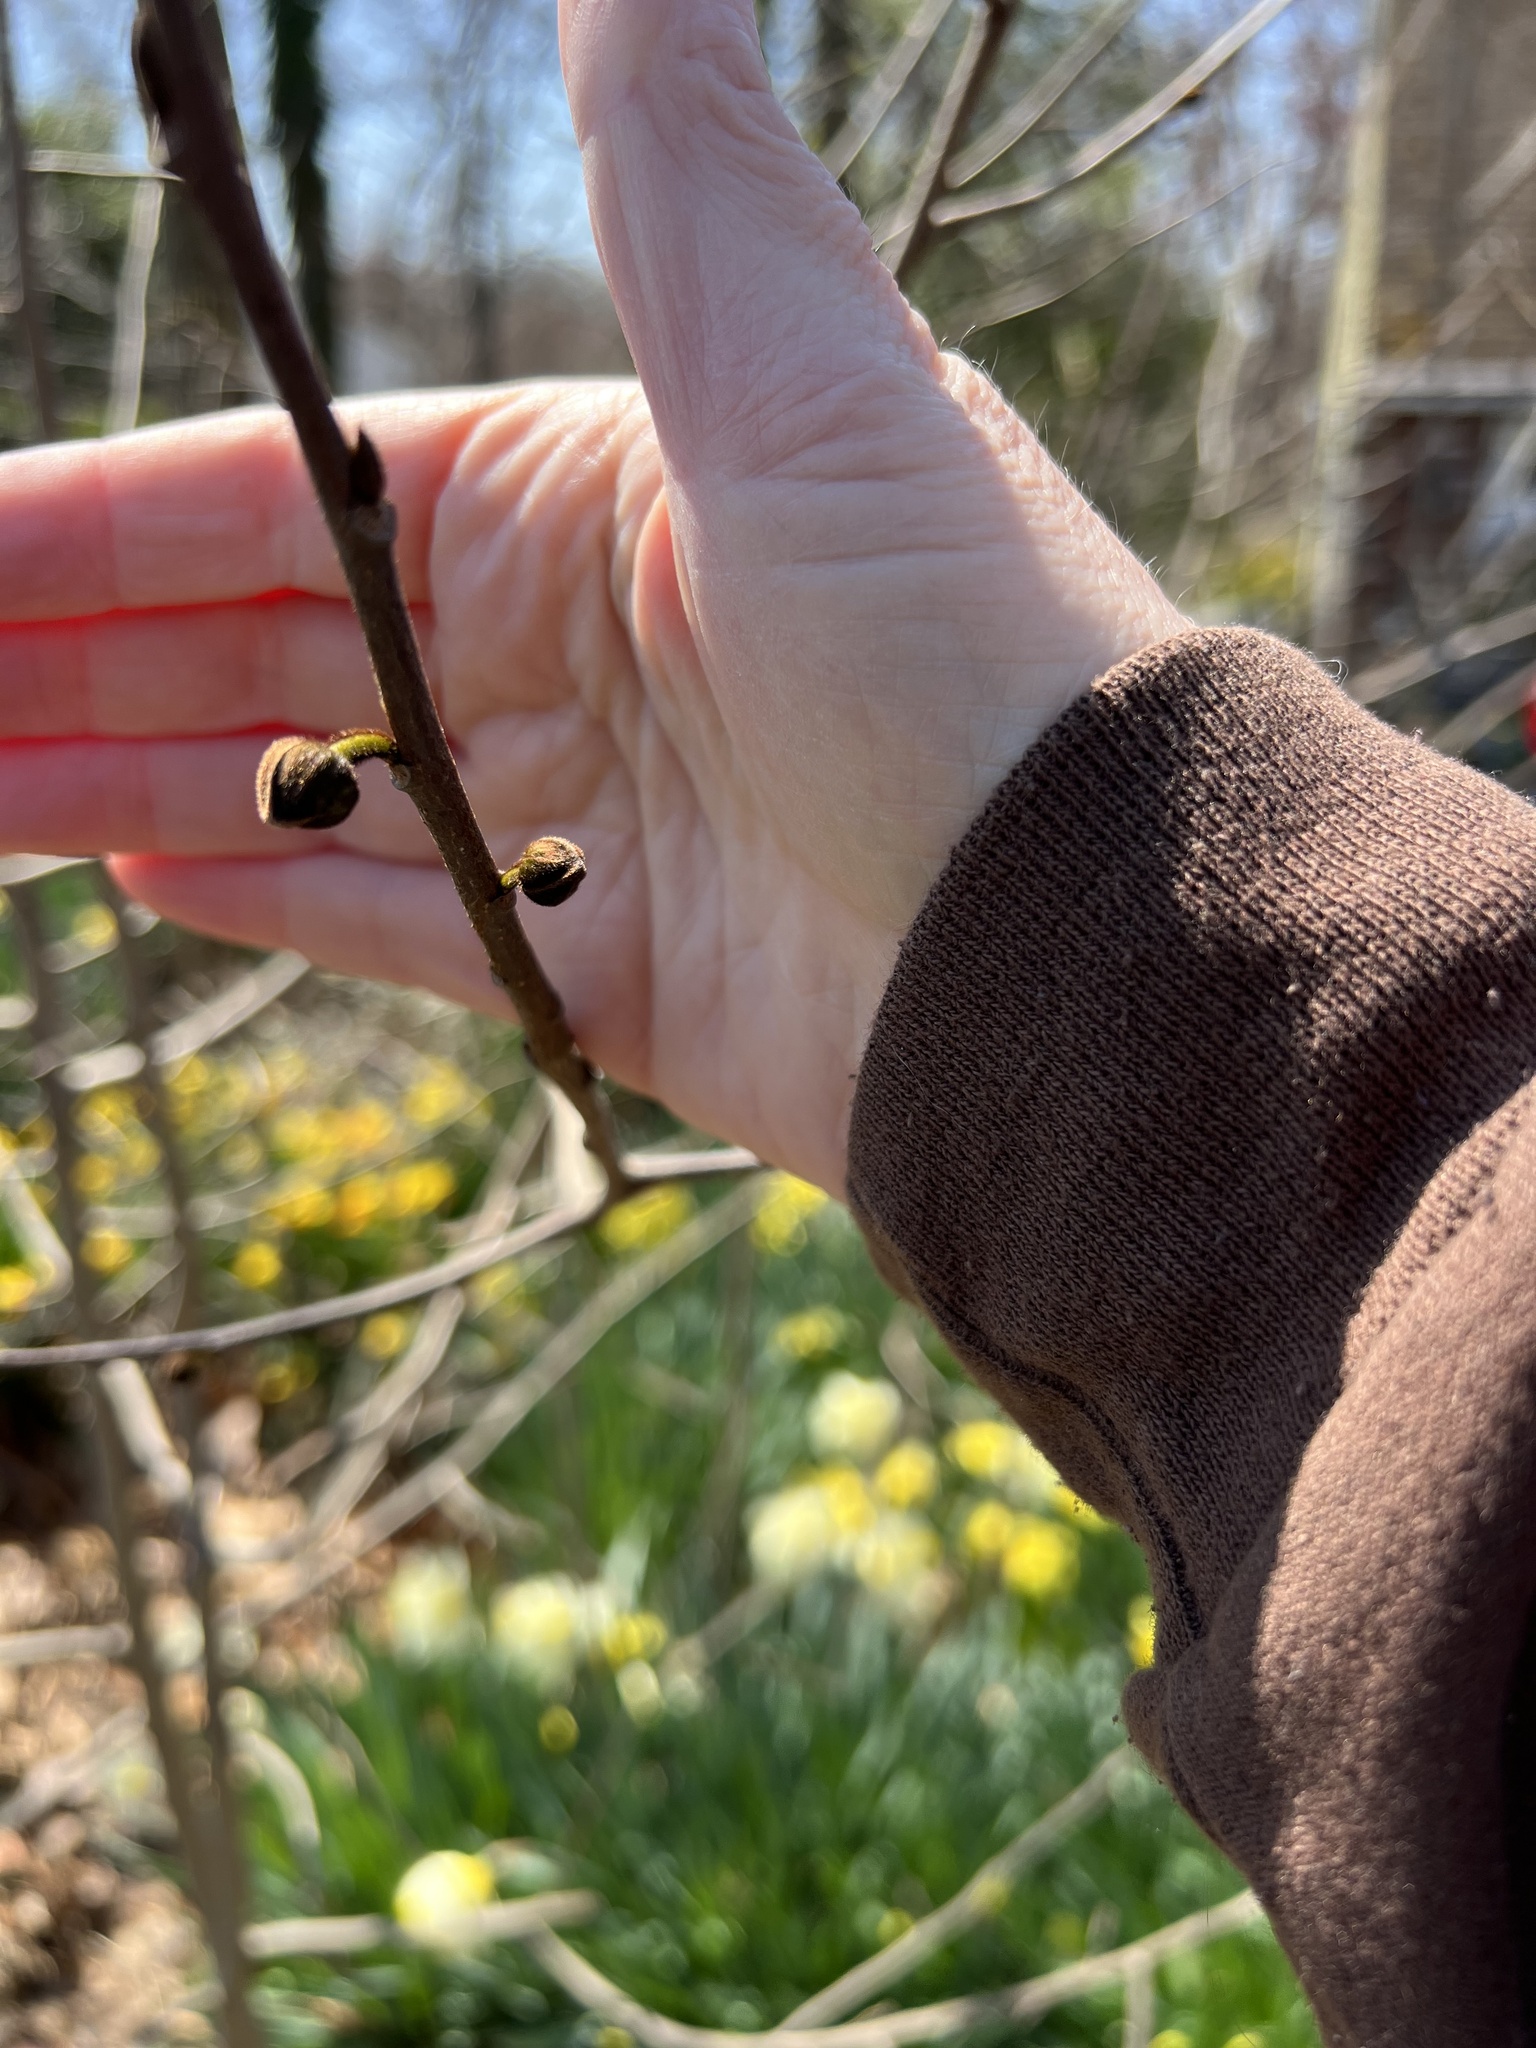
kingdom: Plantae
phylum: Tracheophyta
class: Magnoliopsida
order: Magnoliales
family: Annonaceae
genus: Asimina
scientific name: Asimina triloba
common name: Dog-banana
